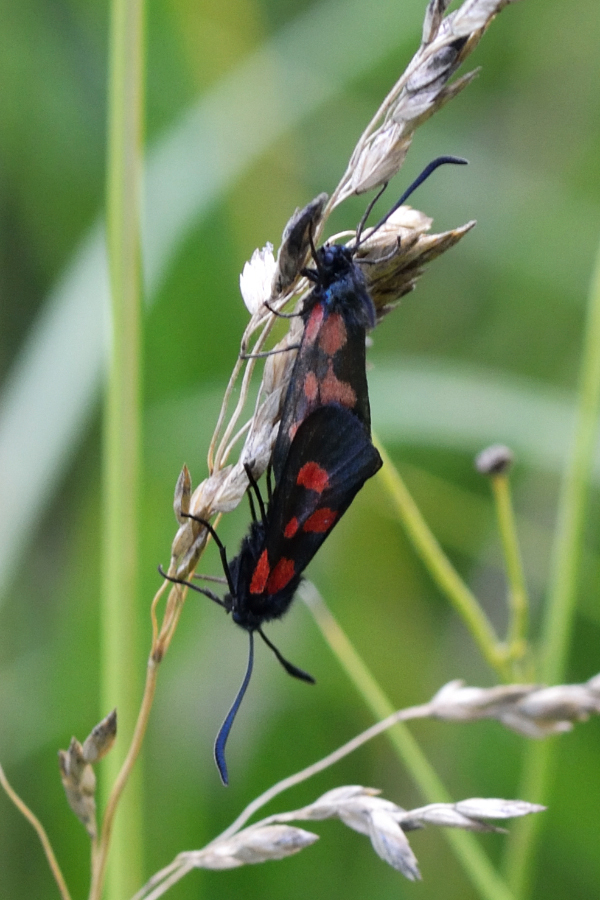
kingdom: Animalia
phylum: Arthropoda
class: Insecta
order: Lepidoptera
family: Zygaenidae
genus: Zygaena
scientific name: Zygaena viciae
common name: New forest burnet
